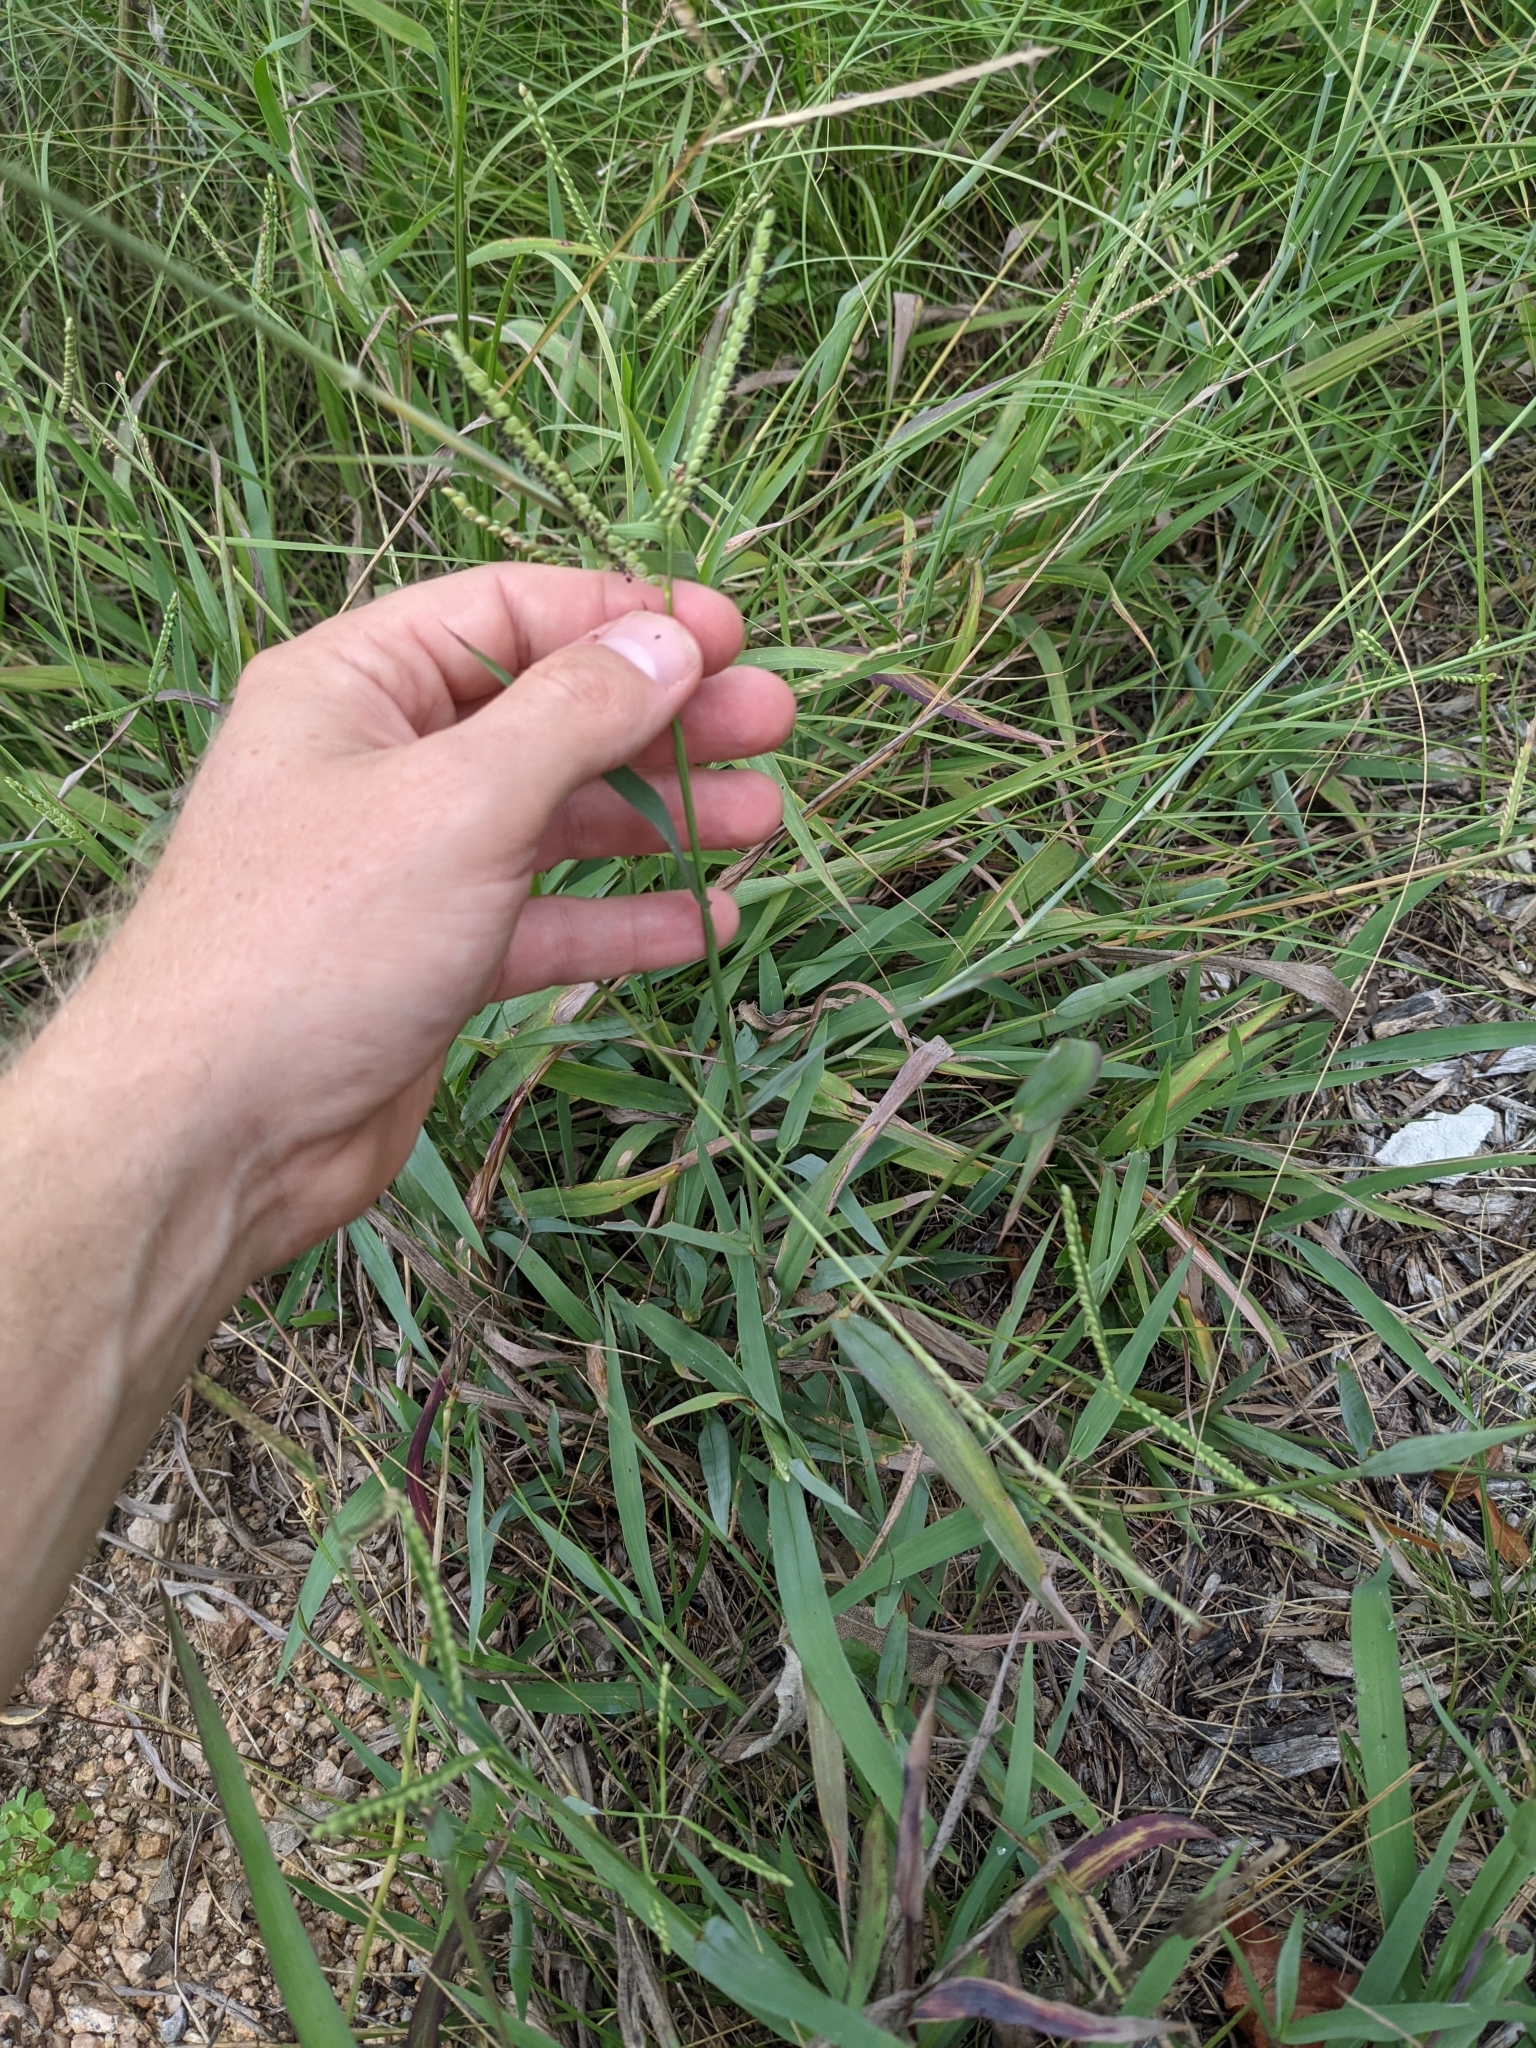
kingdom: Plantae
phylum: Tracheophyta
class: Liliopsida
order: Poales
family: Poaceae
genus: Paspalum
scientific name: Paspalum pubiflorum
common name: Hairy-seed paspalum
